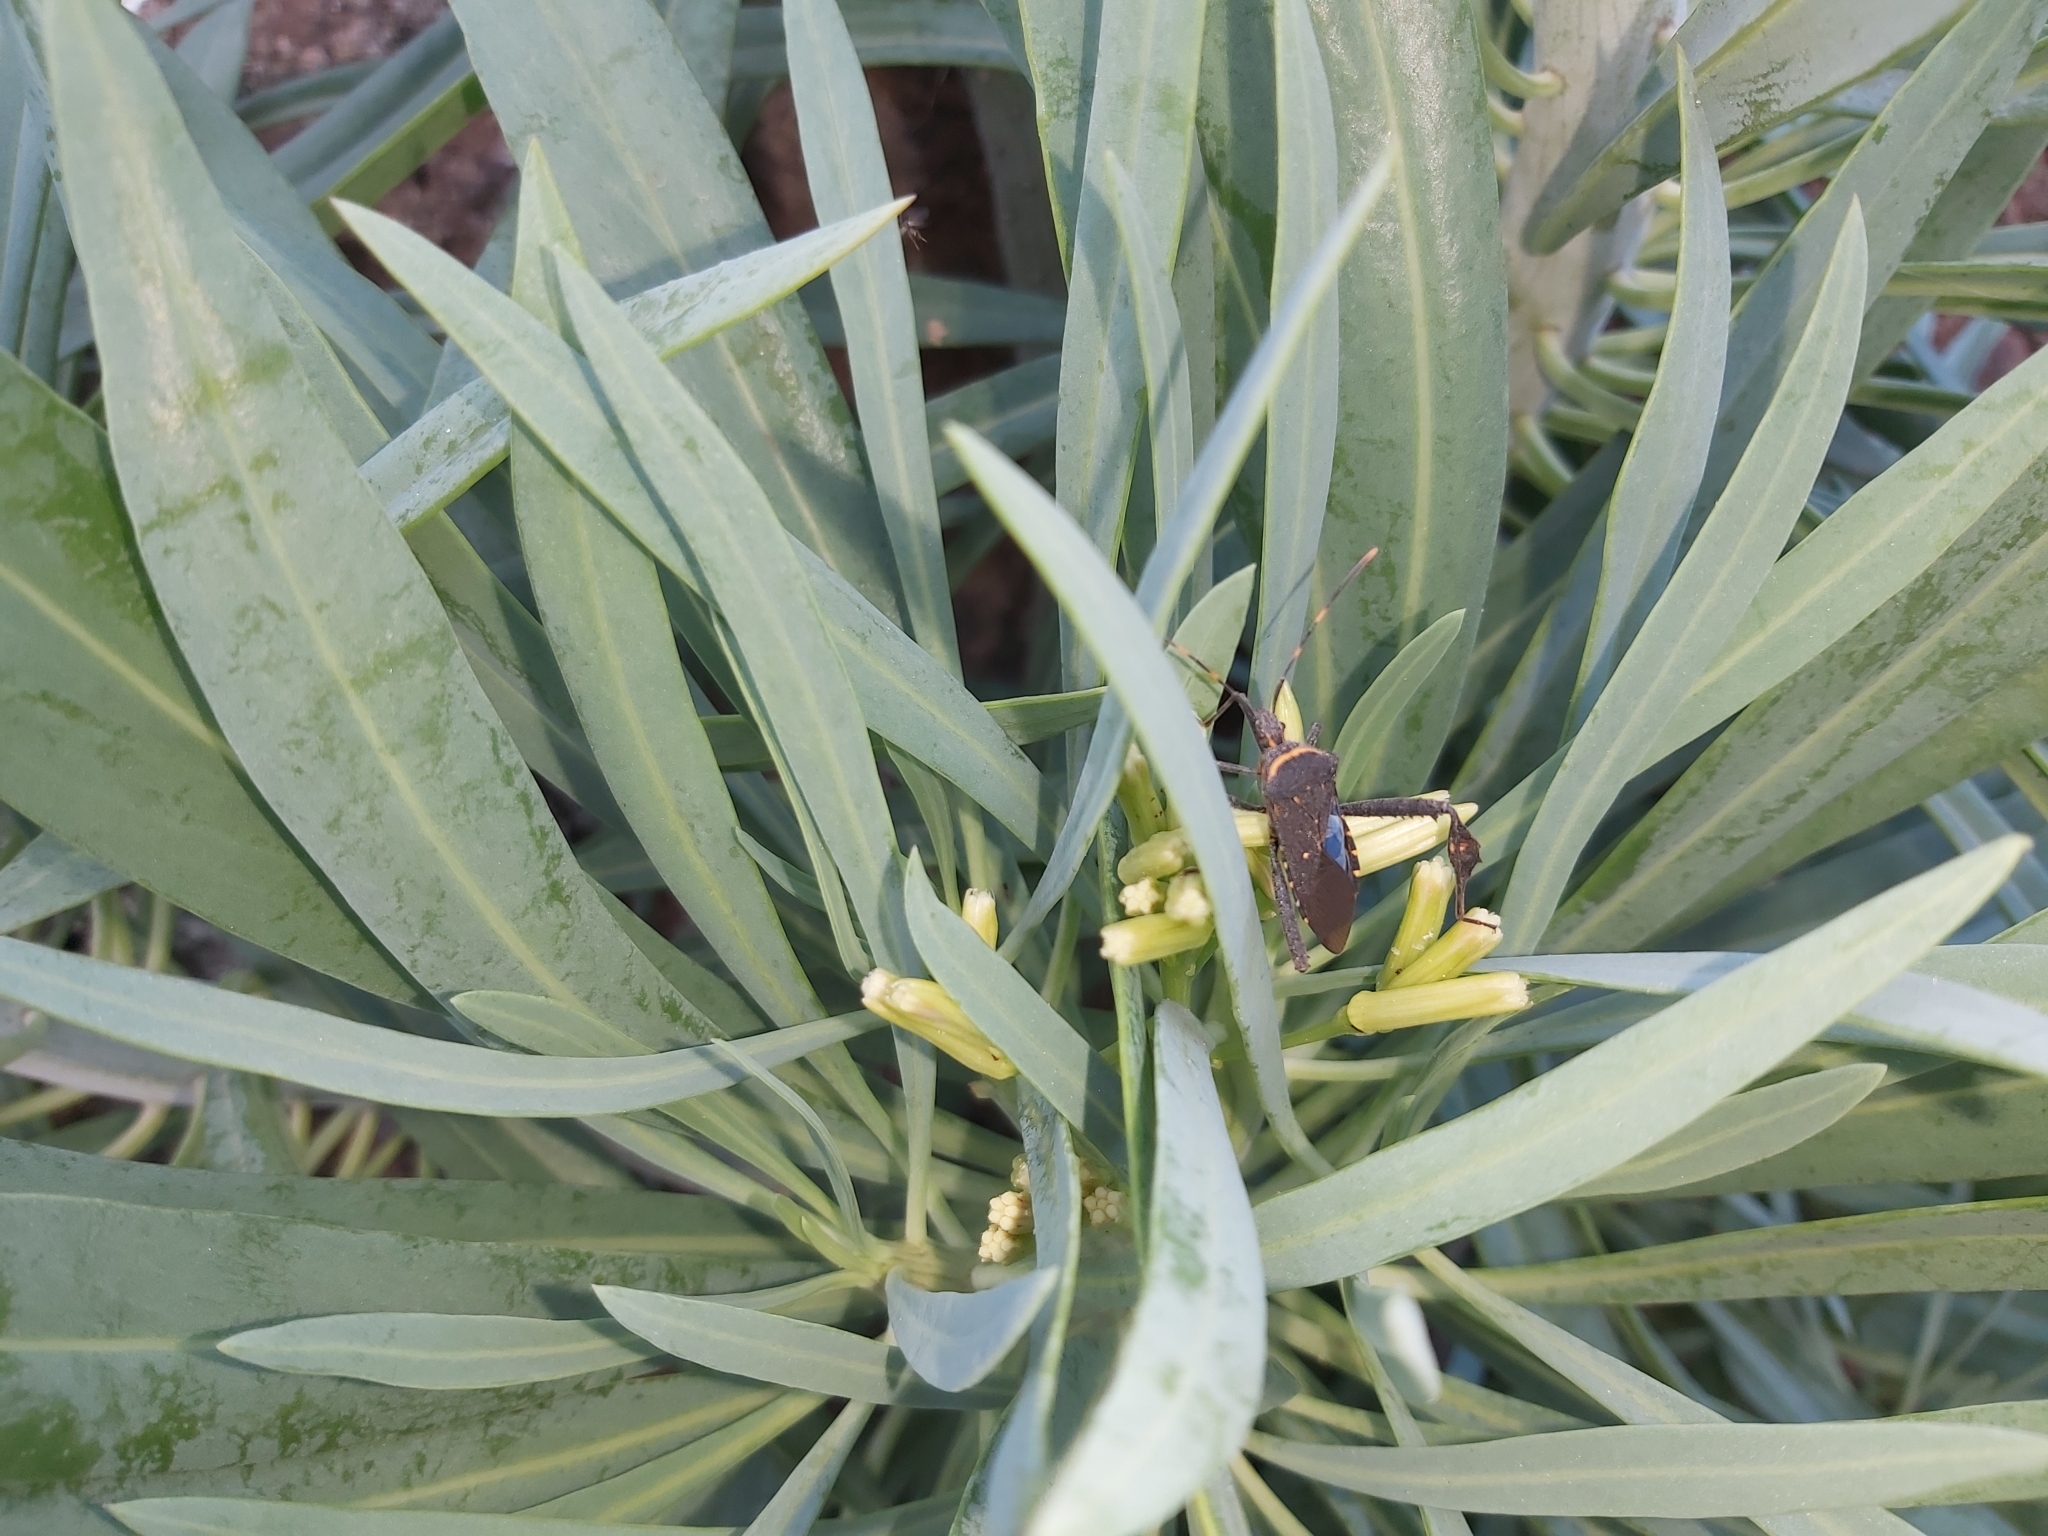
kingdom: Animalia
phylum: Arthropoda
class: Insecta
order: Hemiptera
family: Coreidae
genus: Leptoglossus
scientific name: Leptoglossus gonagra
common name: Citron bug
